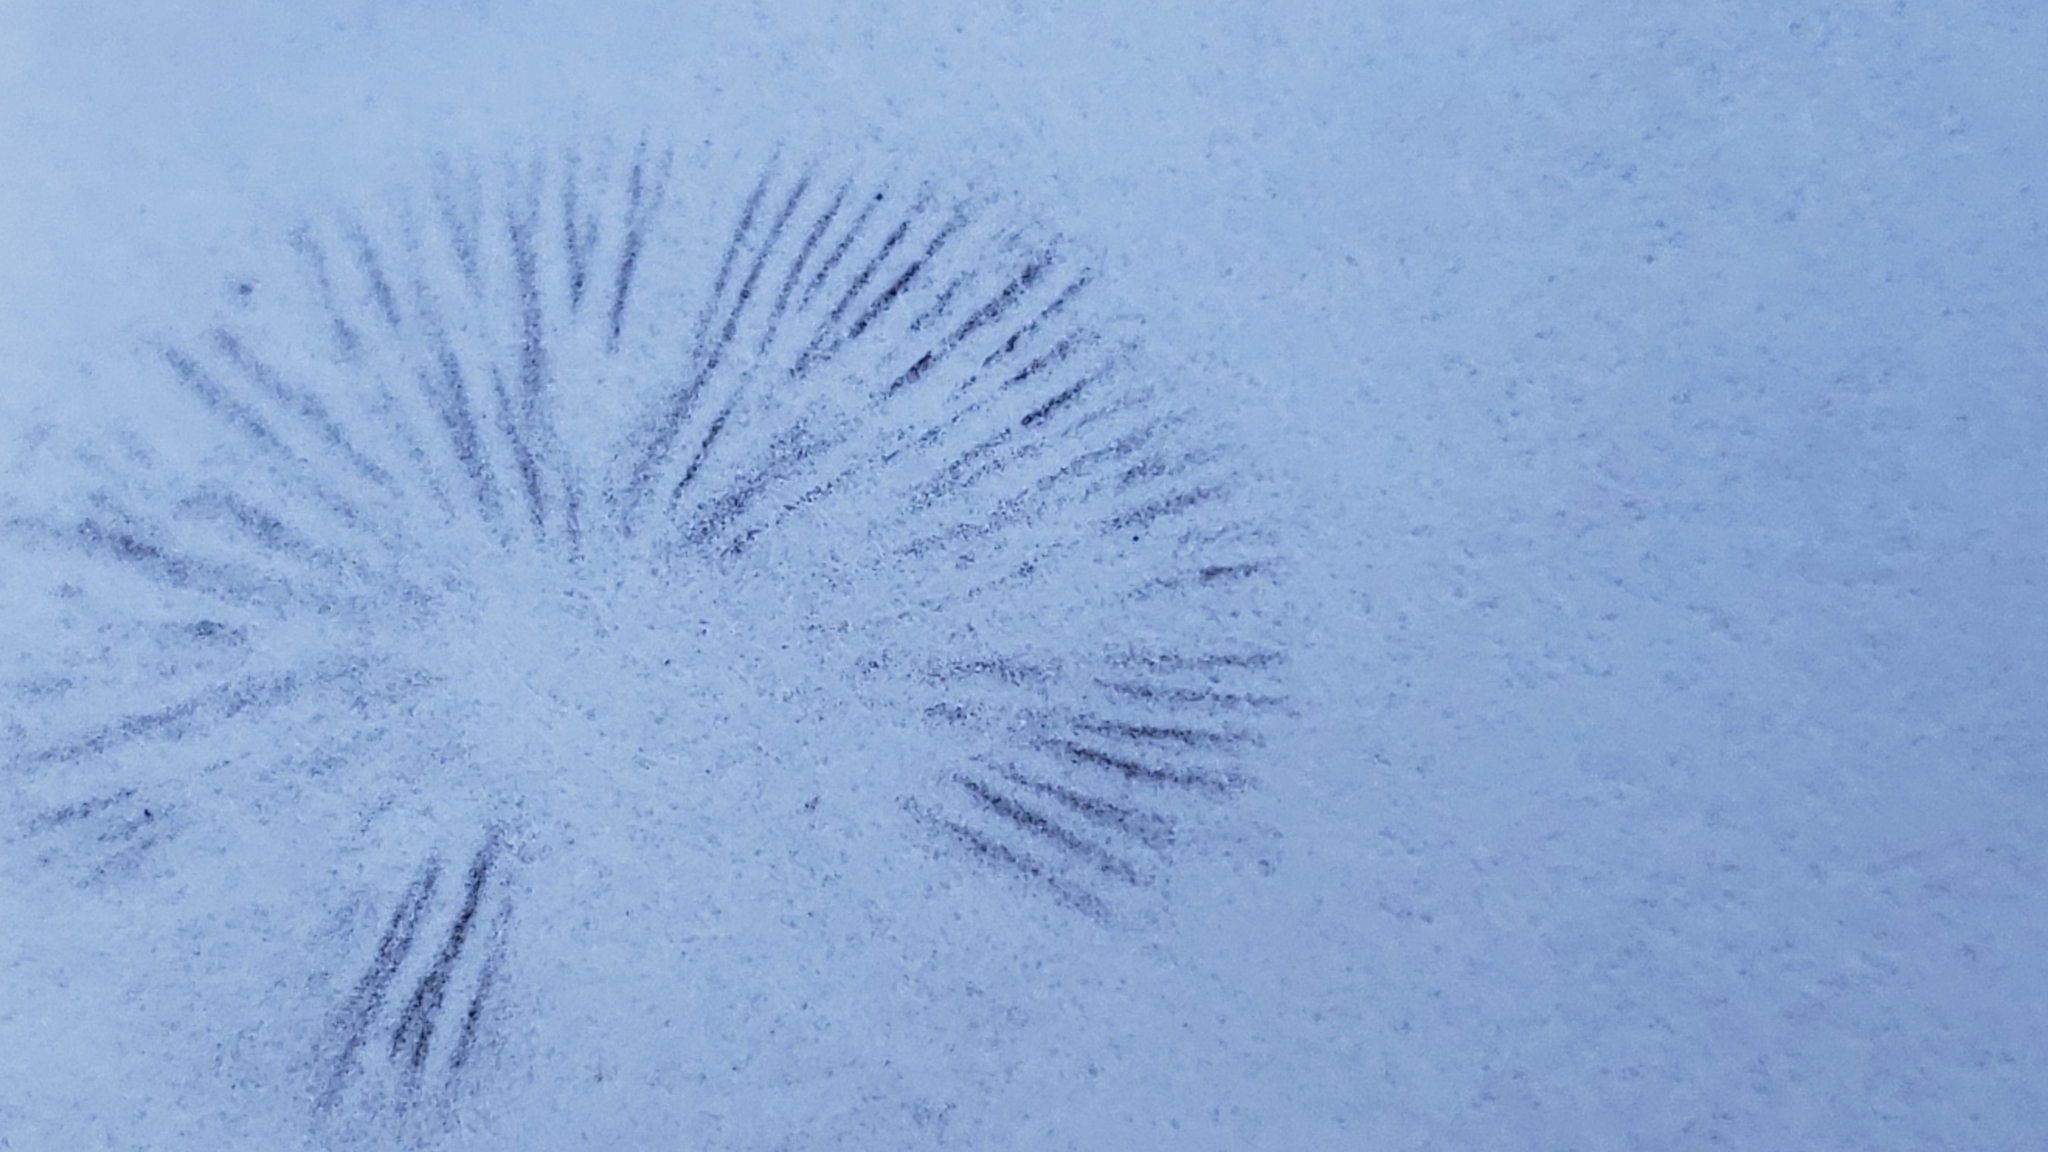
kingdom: Fungi
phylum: Basidiomycota
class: Agaricomycetes
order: Agaricales
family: Bolbitiaceae
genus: Panaeolus
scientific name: Panaeolus cinctulus
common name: Banded mottlegill
